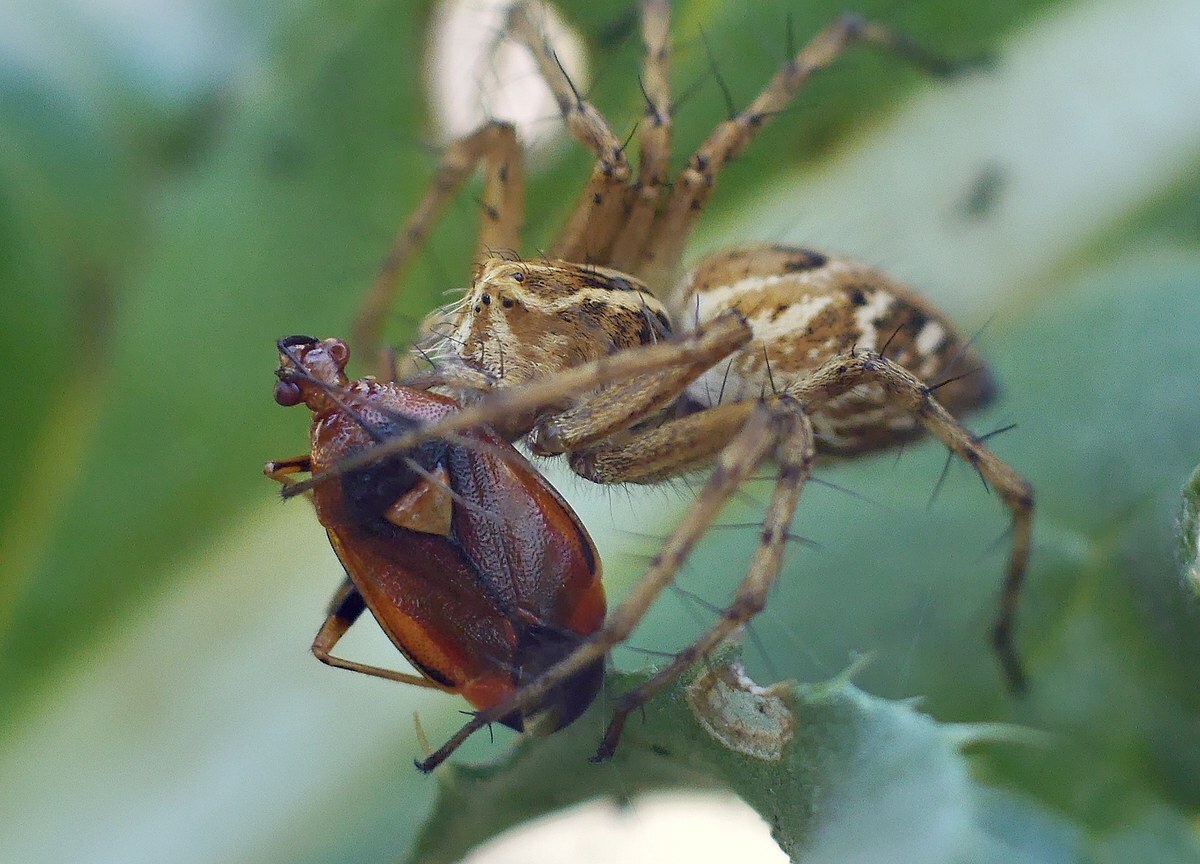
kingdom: Animalia
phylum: Arthropoda
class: Insecta
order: Hemiptera
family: Miridae
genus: Deraeocoris
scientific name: Deraeocoris ruber
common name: Plant bug
